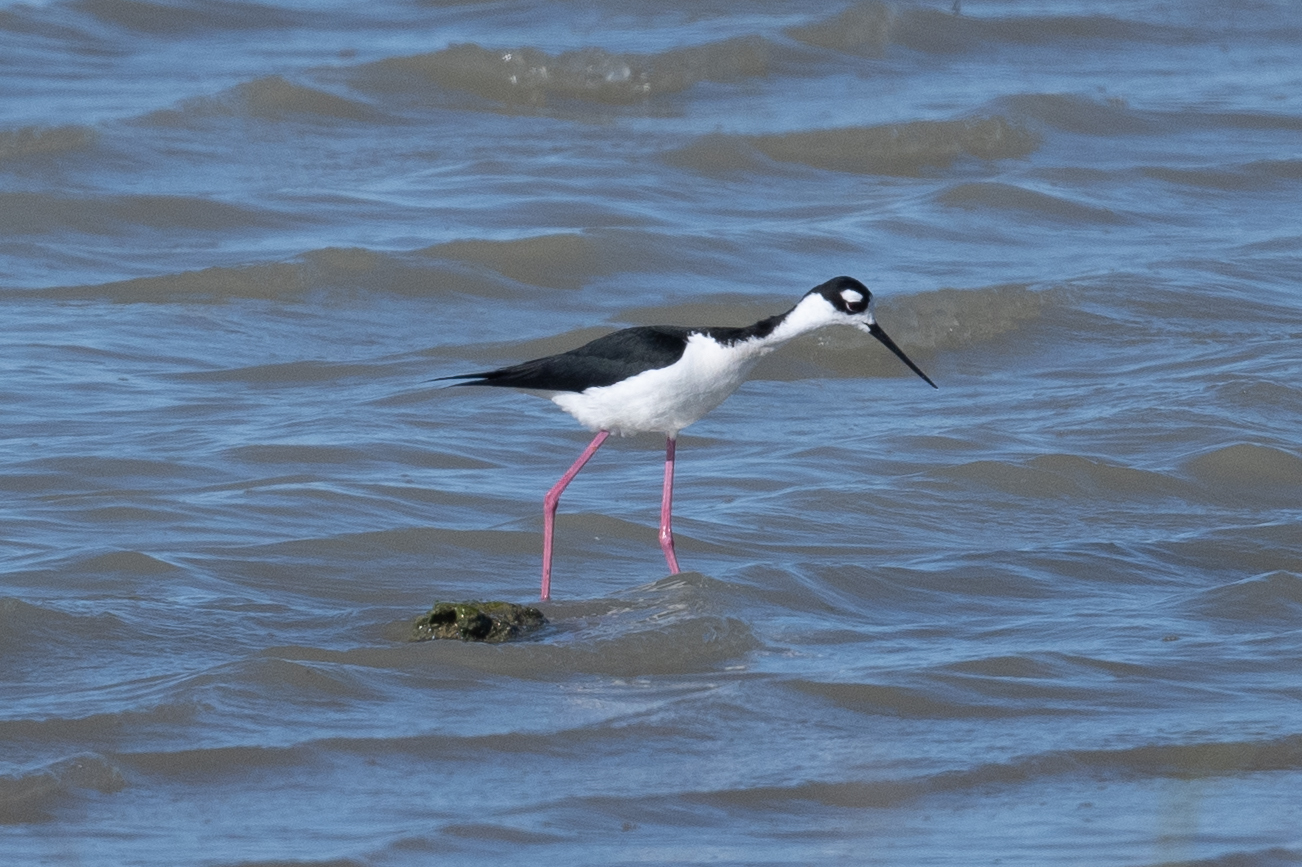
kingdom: Animalia
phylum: Chordata
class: Aves
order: Charadriiformes
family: Recurvirostridae
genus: Himantopus
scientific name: Himantopus mexicanus
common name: Black-necked stilt
